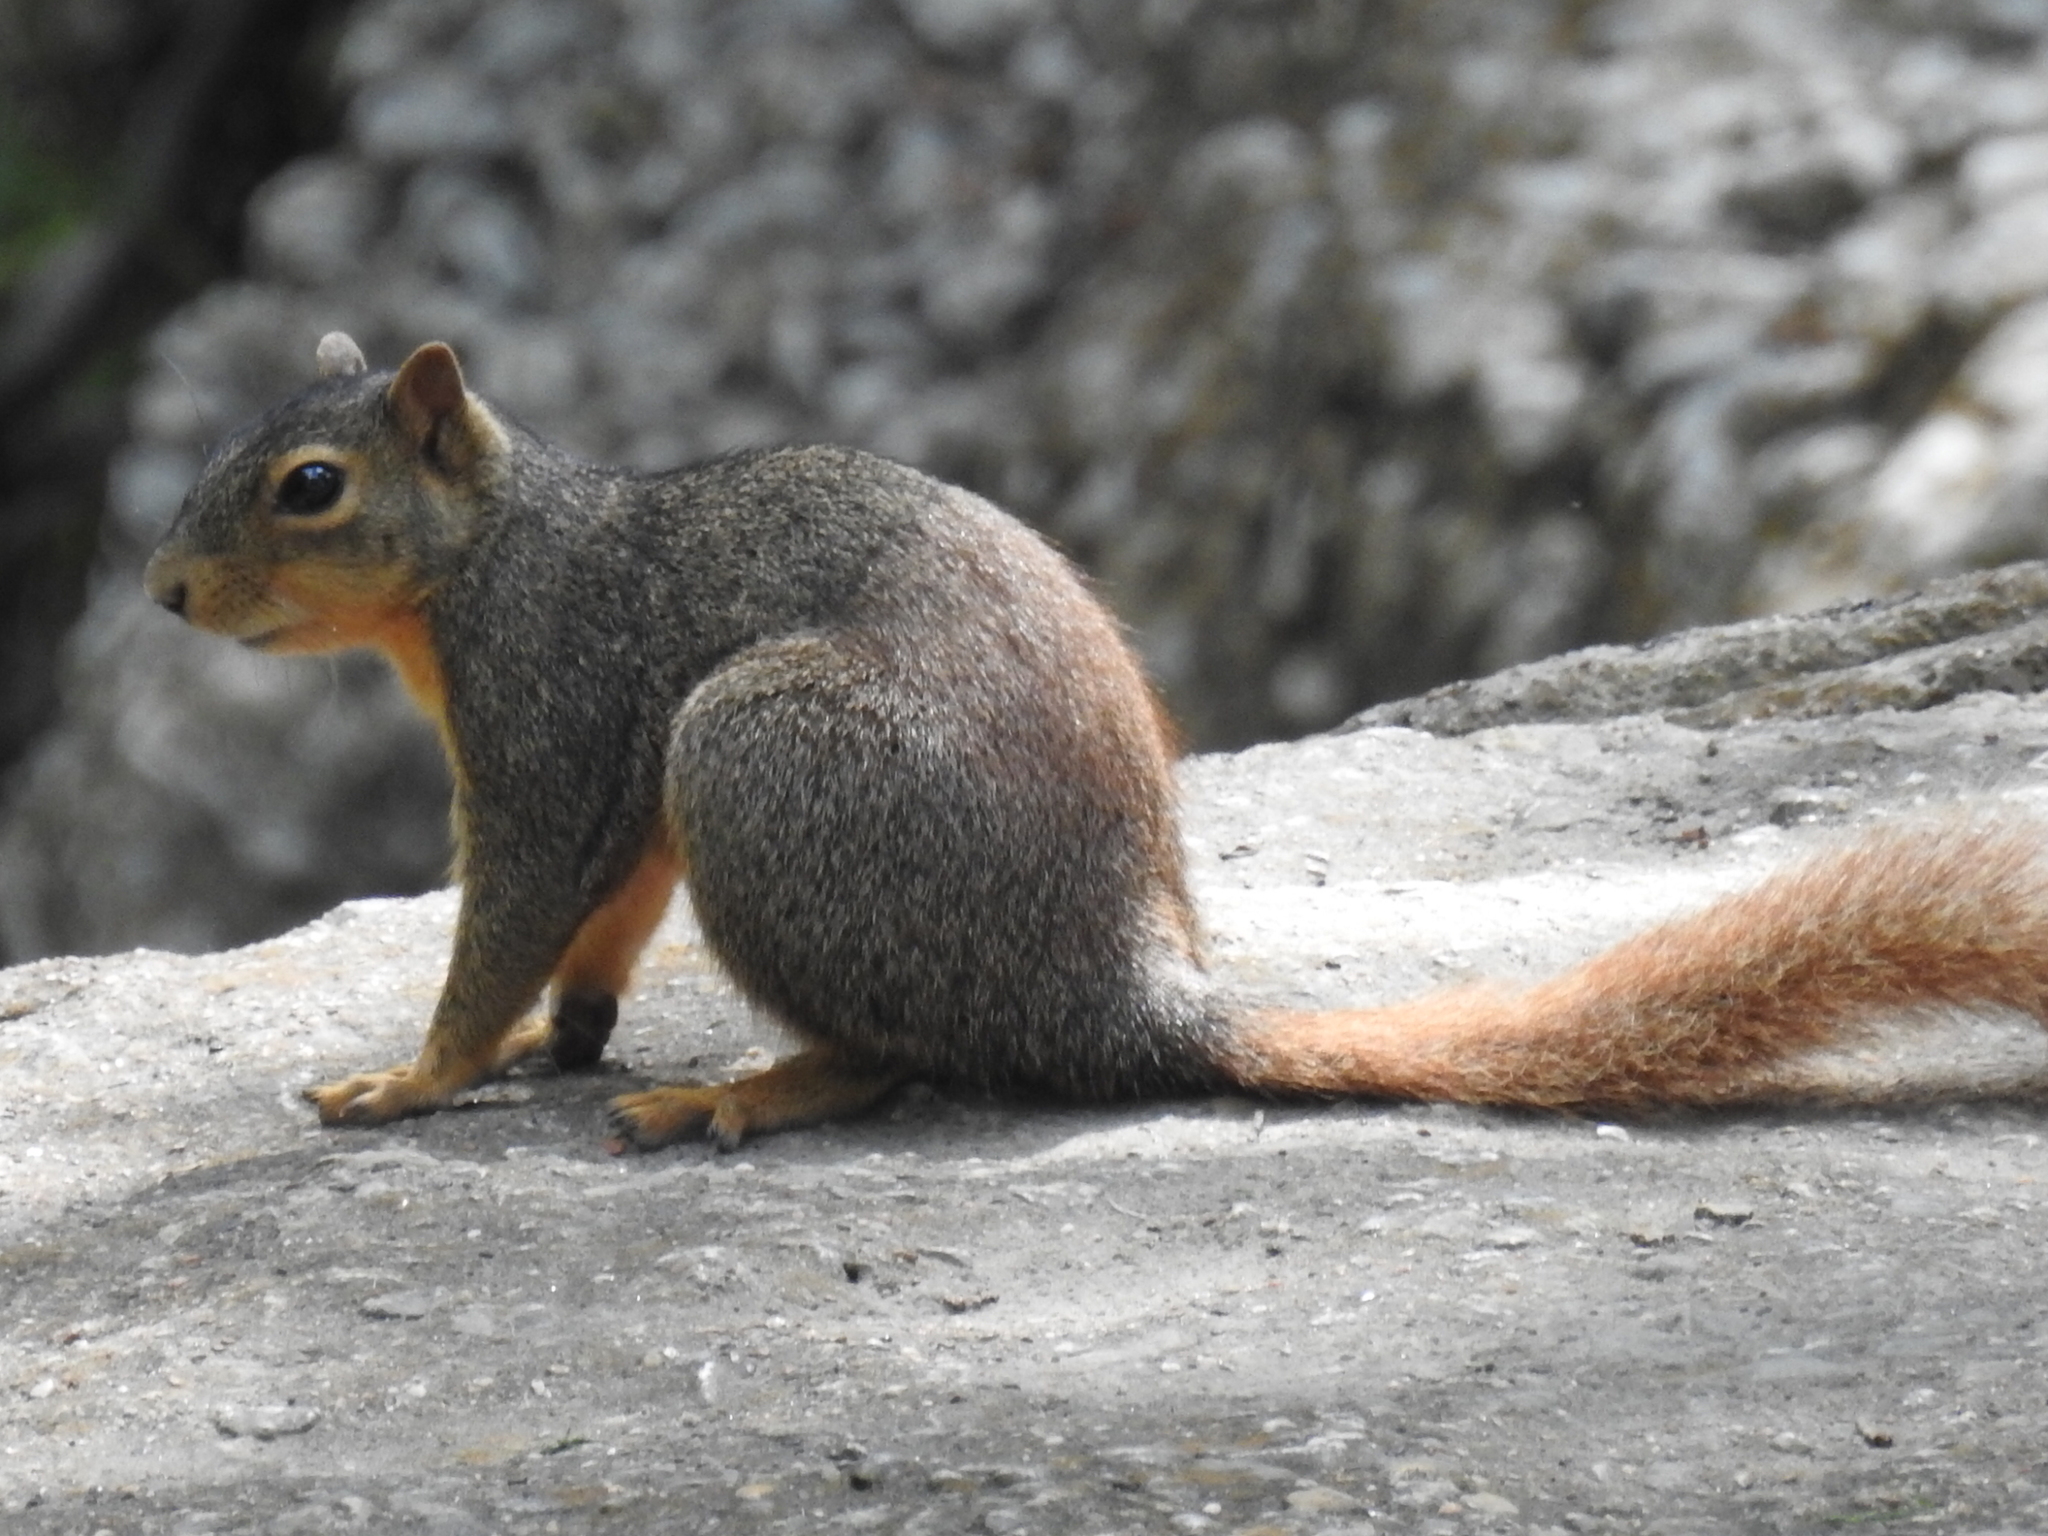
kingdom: Animalia
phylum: Chordata
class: Mammalia
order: Rodentia
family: Sciuridae
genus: Sciurus
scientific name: Sciurus niger
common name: Fox squirrel
